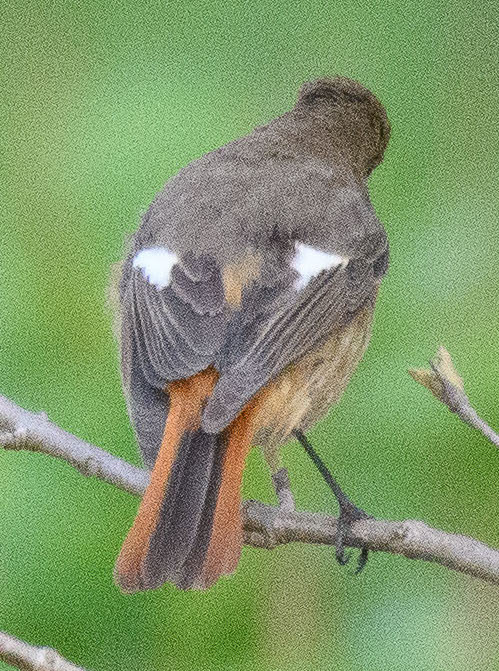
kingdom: Animalia
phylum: Chordata
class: Aves
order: Passeriformes
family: Muscicapidae
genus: Phoenicurus
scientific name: Phoenicurus auroreus
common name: Daurian redstart
